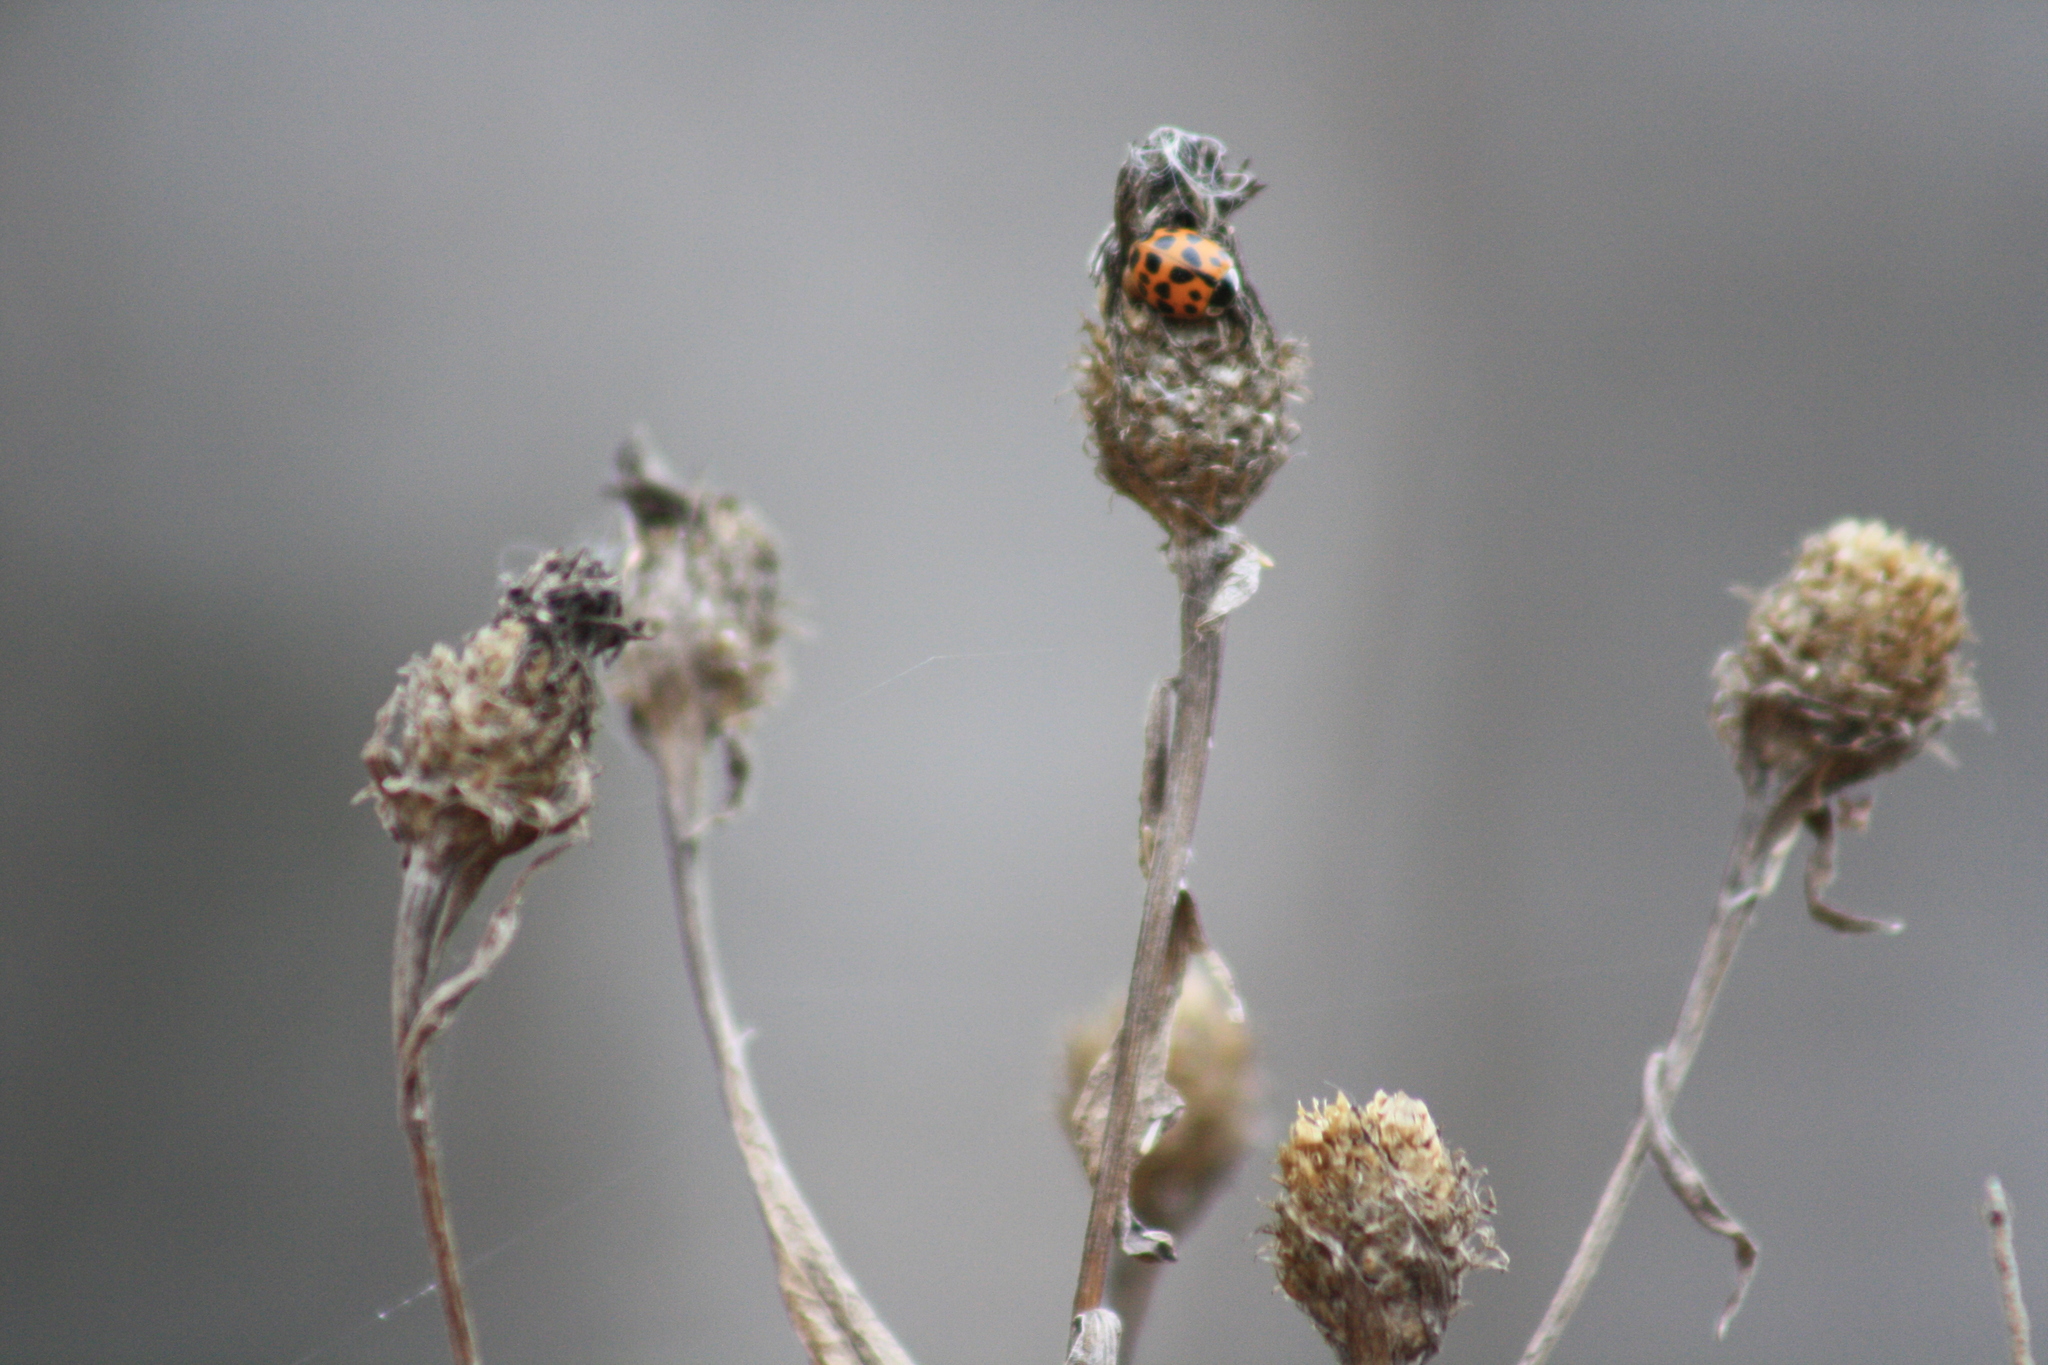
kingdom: Animalia
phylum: Arthropoda
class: Insecta
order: Coleoptera
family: Coccinellidae
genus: Harmonia
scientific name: Harmonia axyridis
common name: Harlequin ladybird
